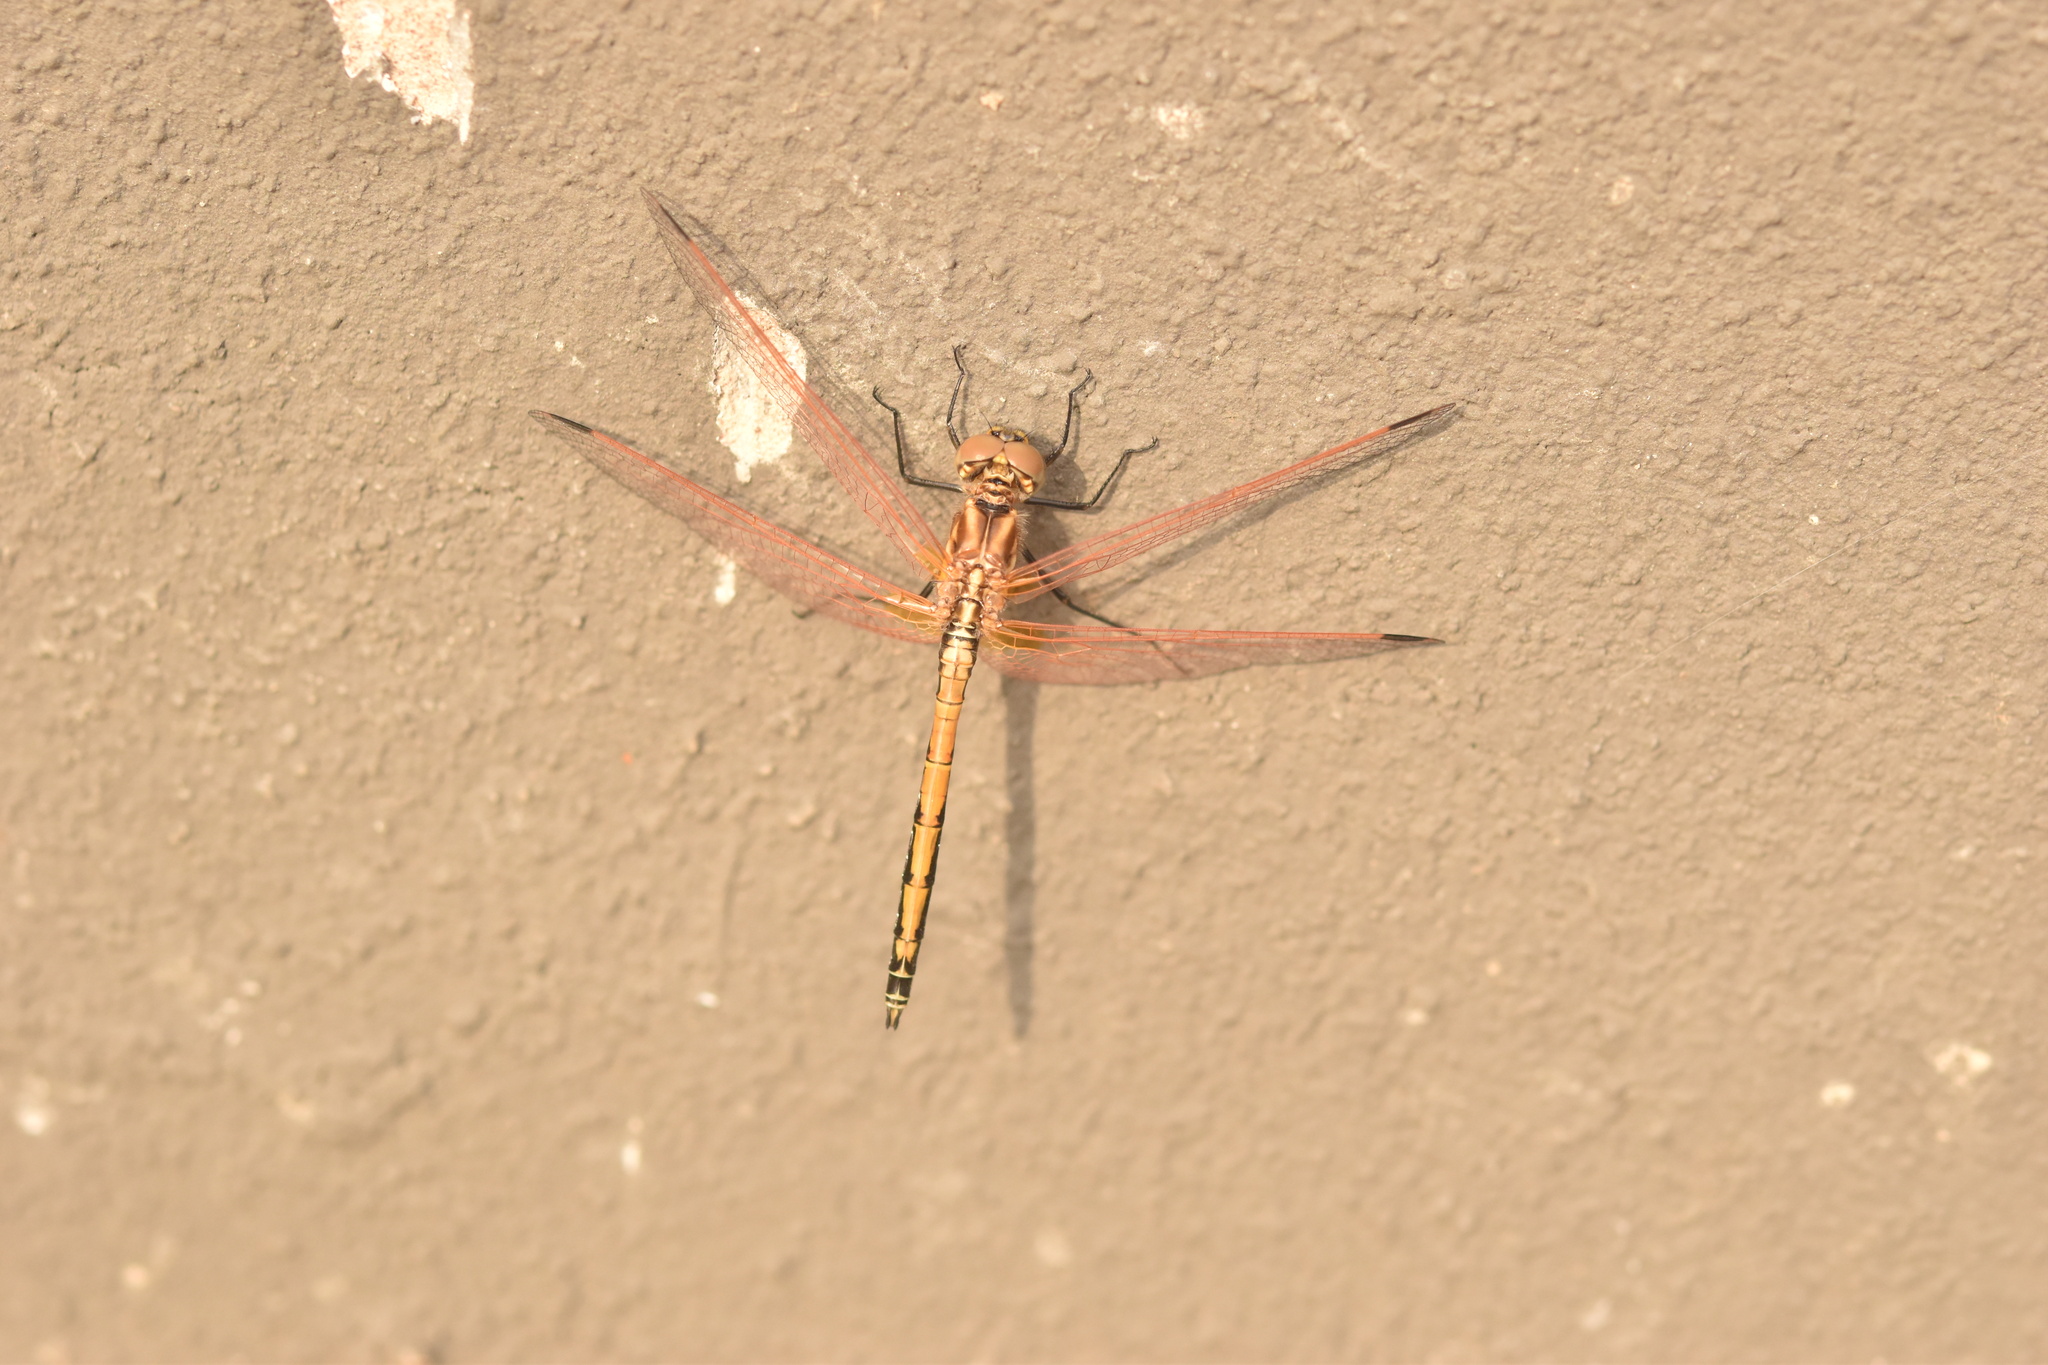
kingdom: Animalia
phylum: Arthropoda
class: Insecta
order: Odonata
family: Libellulidae
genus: Trithemis
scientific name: Trithemis arteriosa
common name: Red-veined dropwing
